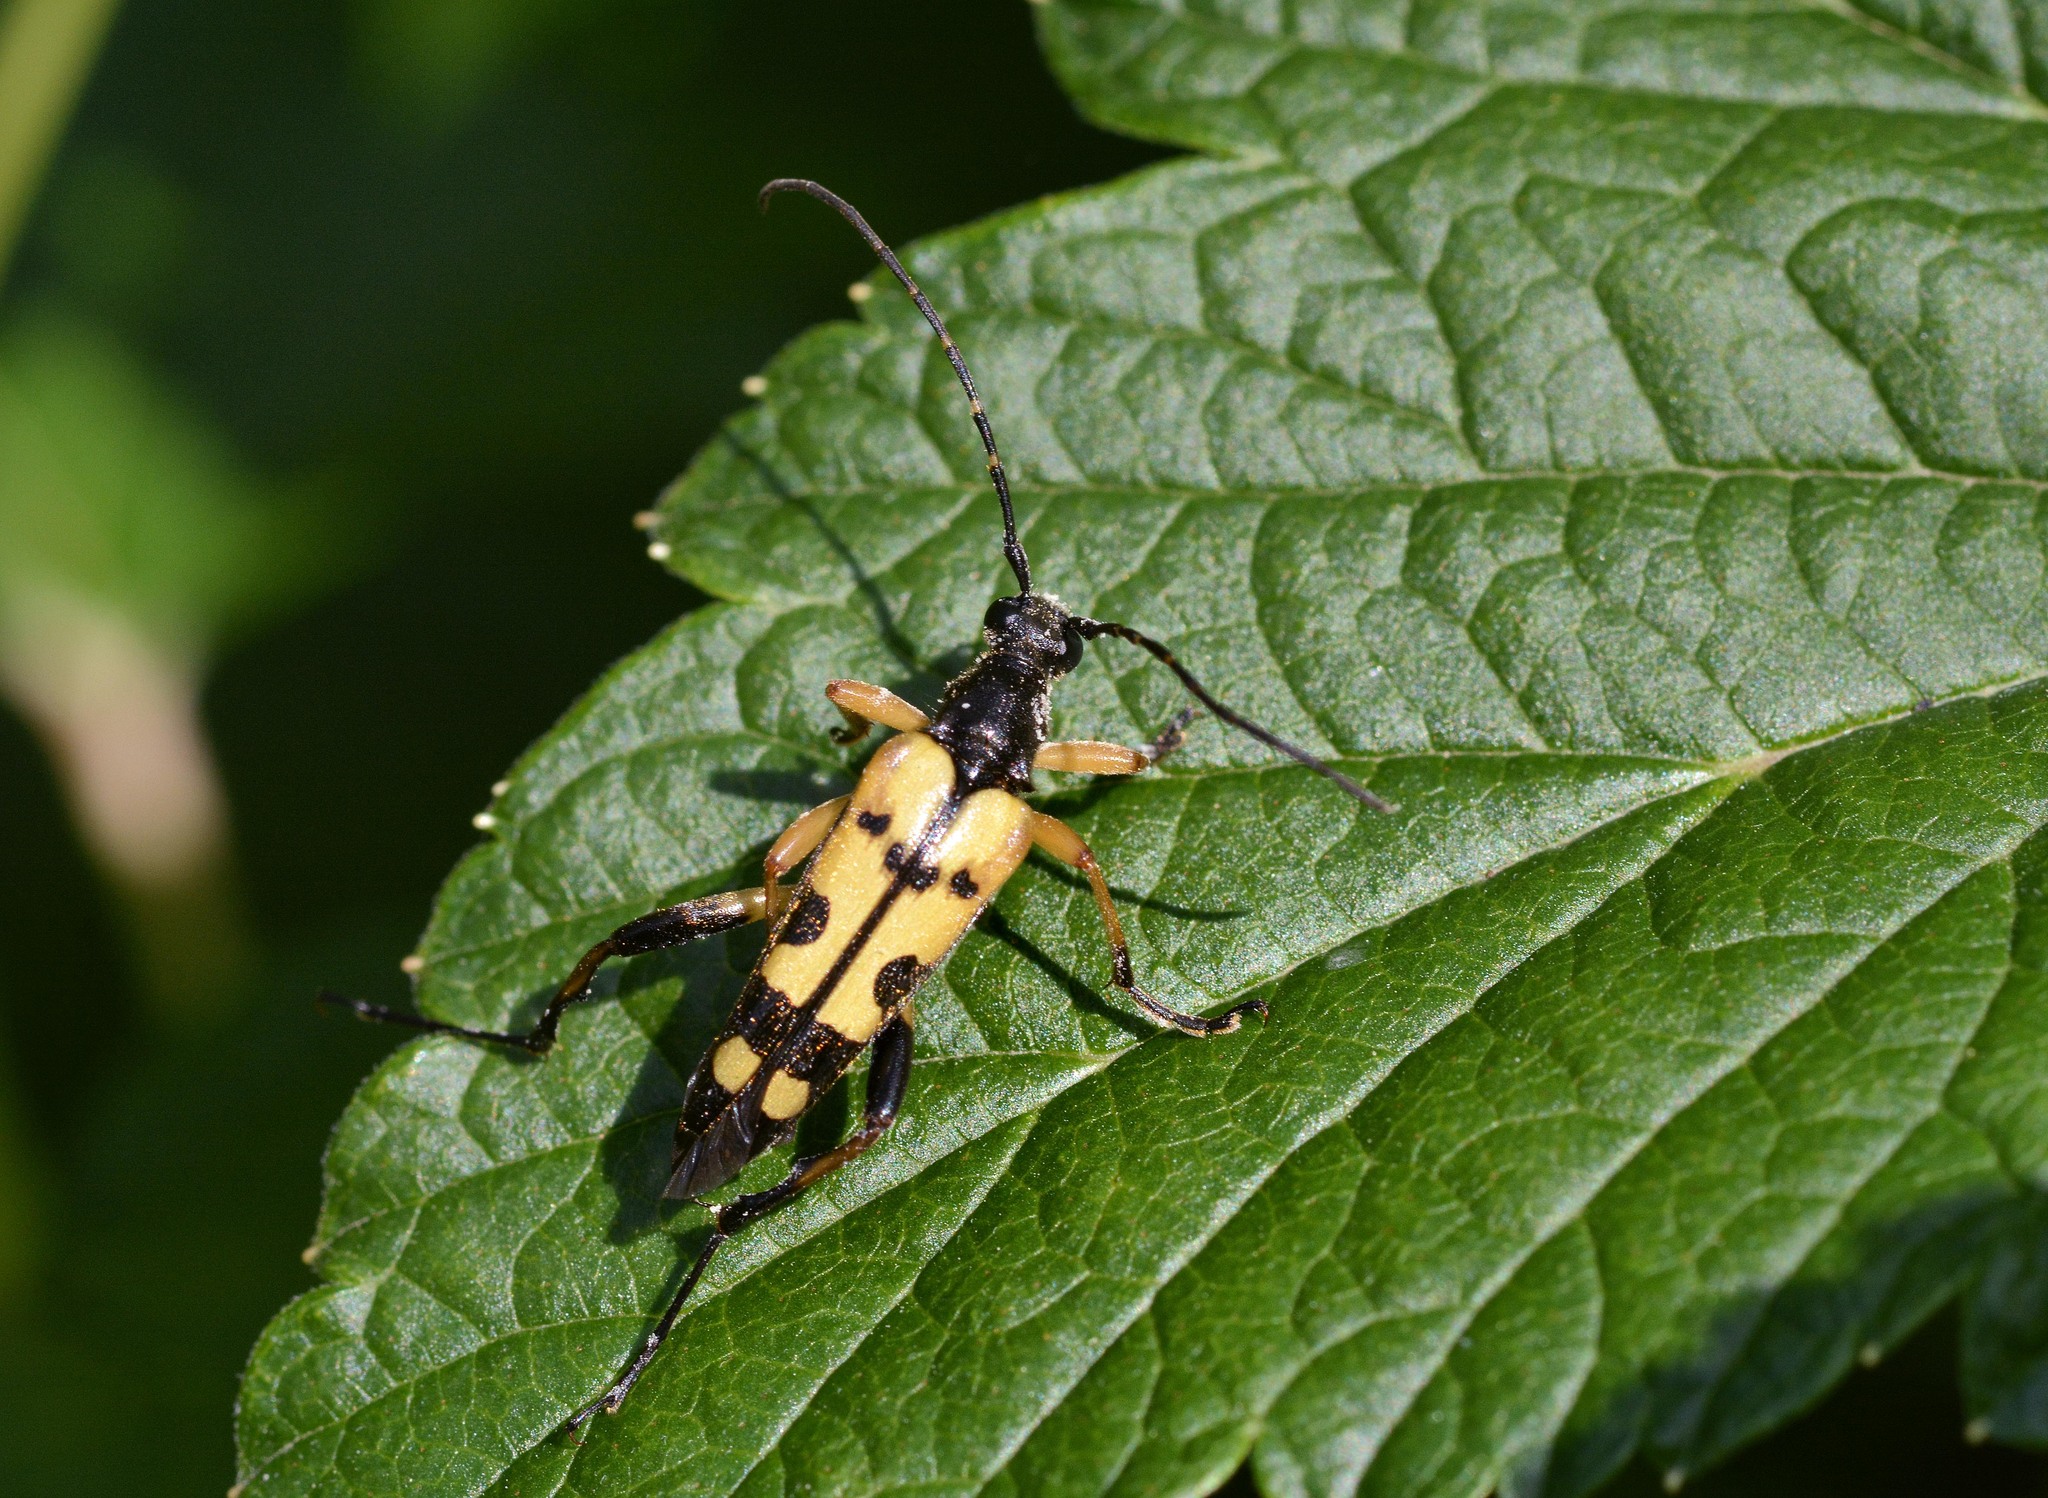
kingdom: Animalia
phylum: Arthropoda
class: Insecta
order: Coleoptera
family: Cerambycidae
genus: Rutpela
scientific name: Rutpela maculata
